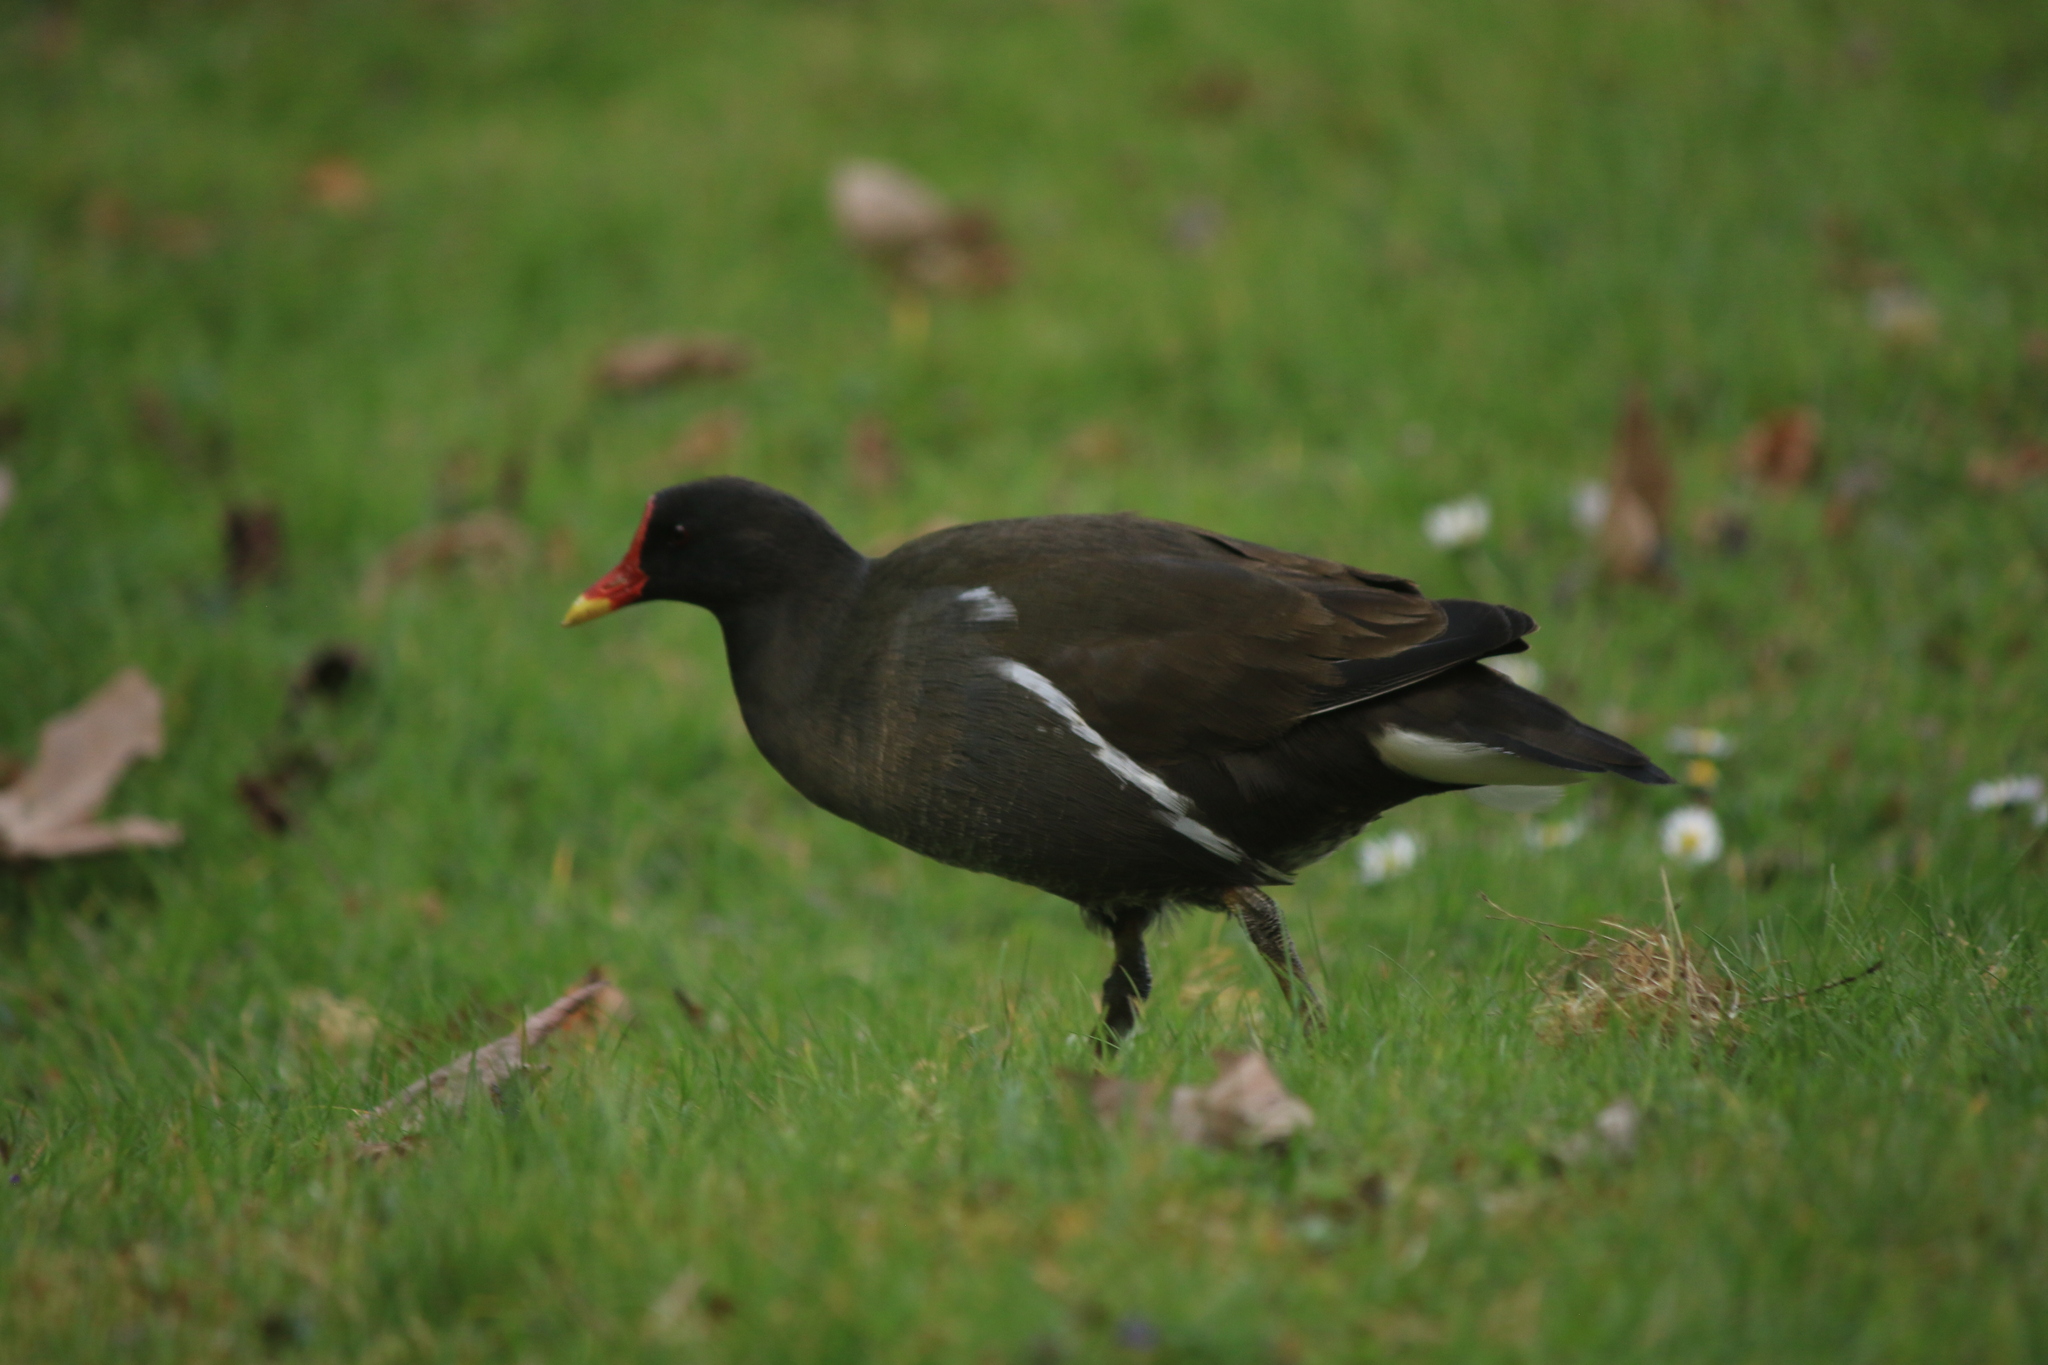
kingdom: Animalia
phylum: Chordata
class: Aves
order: Gruiformes
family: Rallidae
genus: Gallinula
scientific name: Gallinula chloropus
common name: Common moorhen
